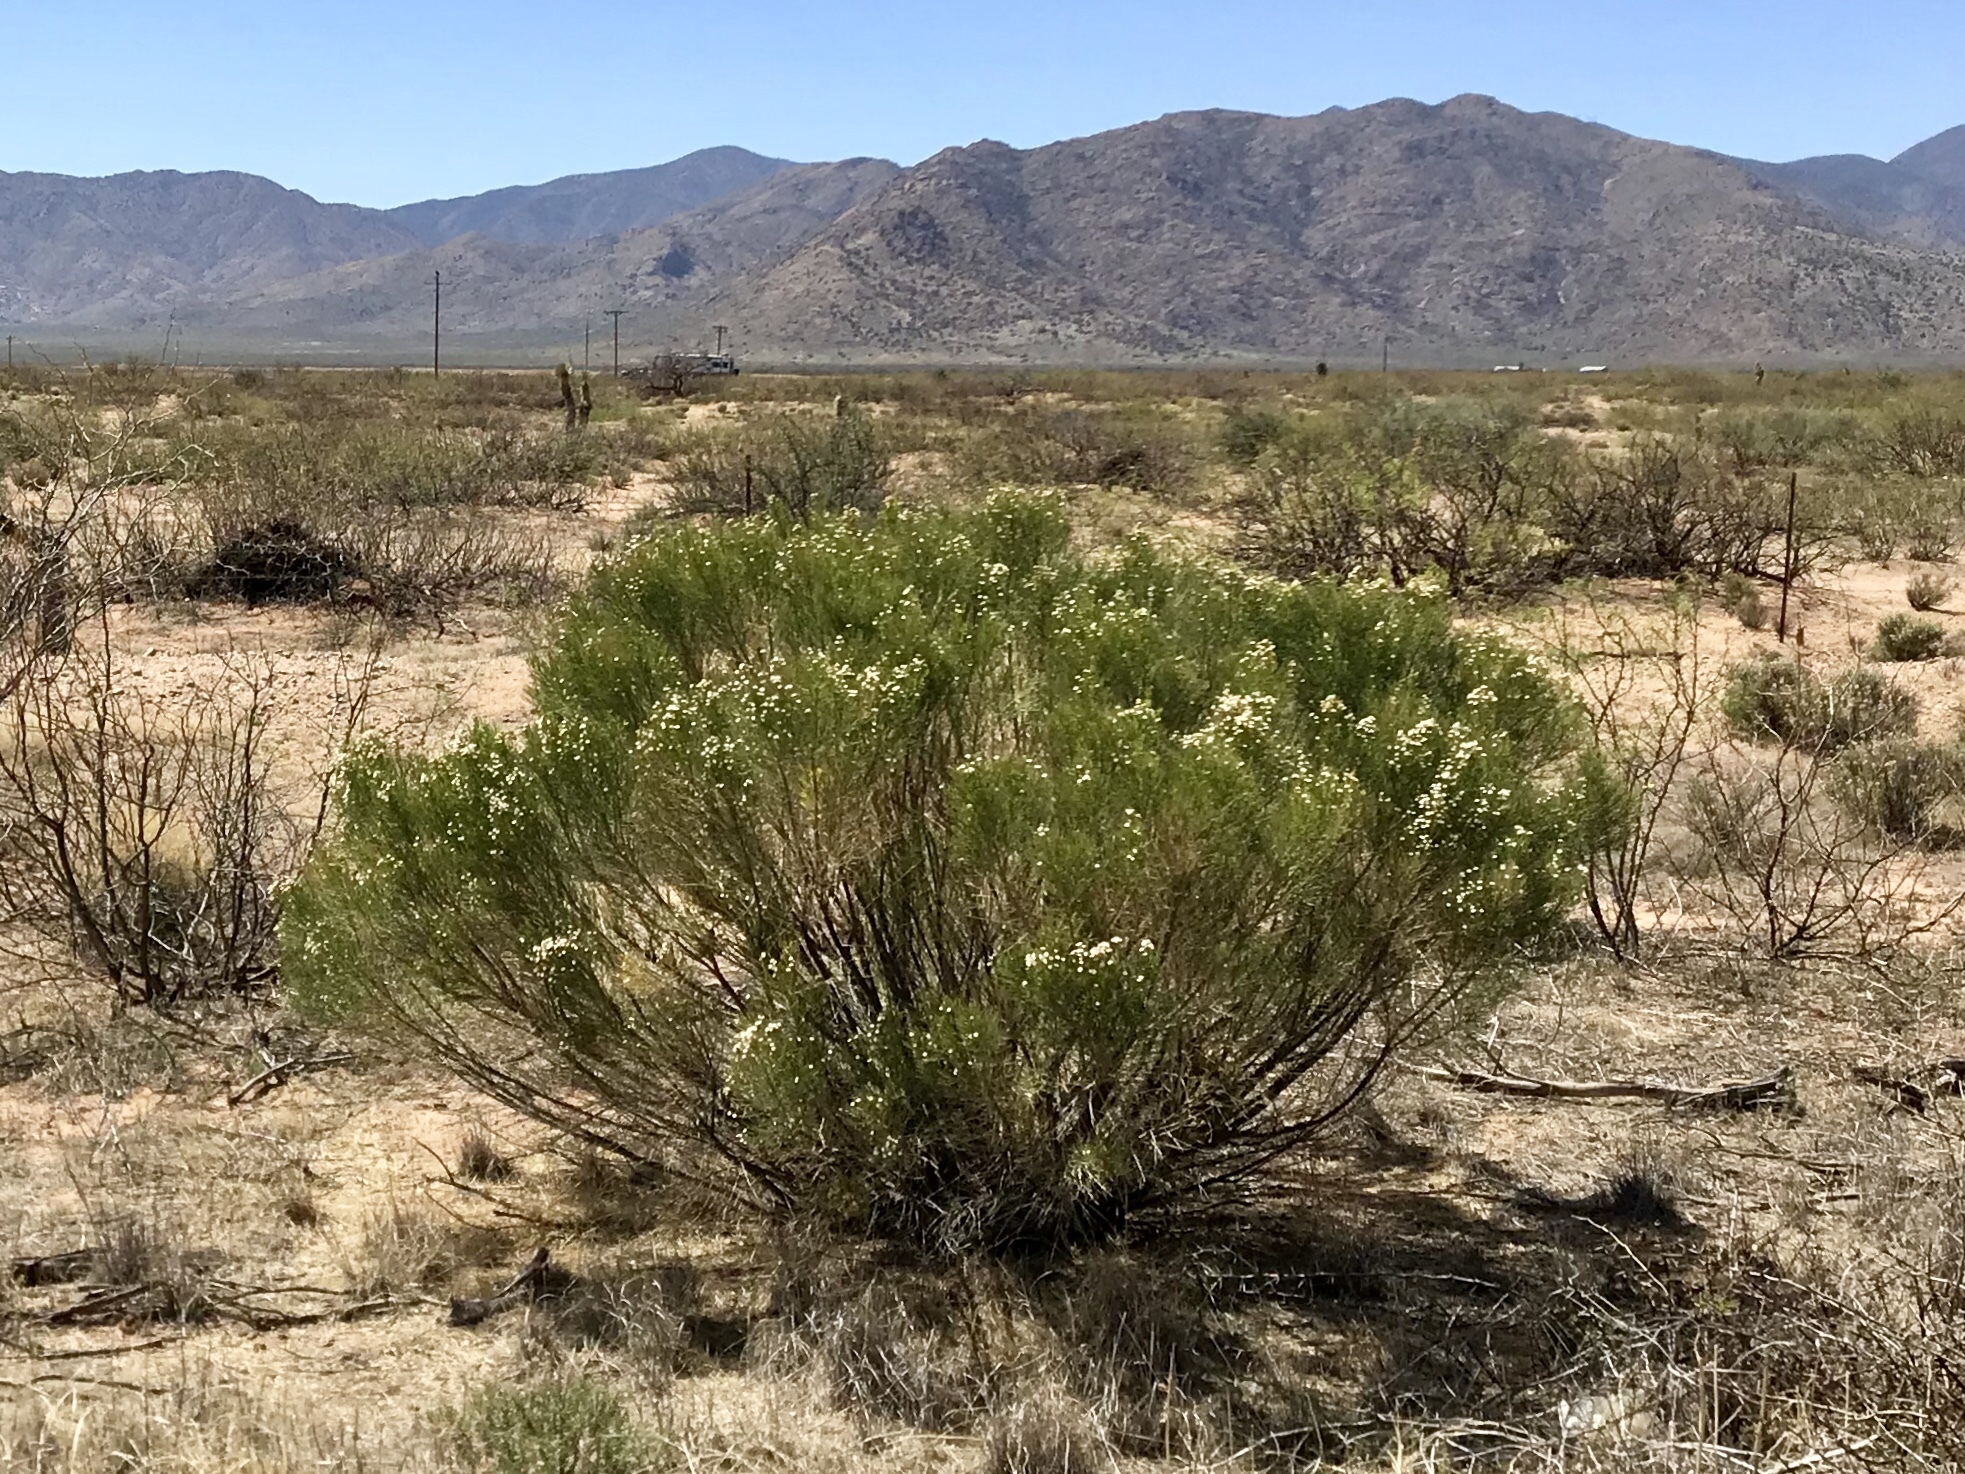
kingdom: Plantae
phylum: Tracheophyta
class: Magnoliopsida
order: Asterales
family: Asteraceae
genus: Baccharis
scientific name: Baccharis sarothroides
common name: Desert-broom
